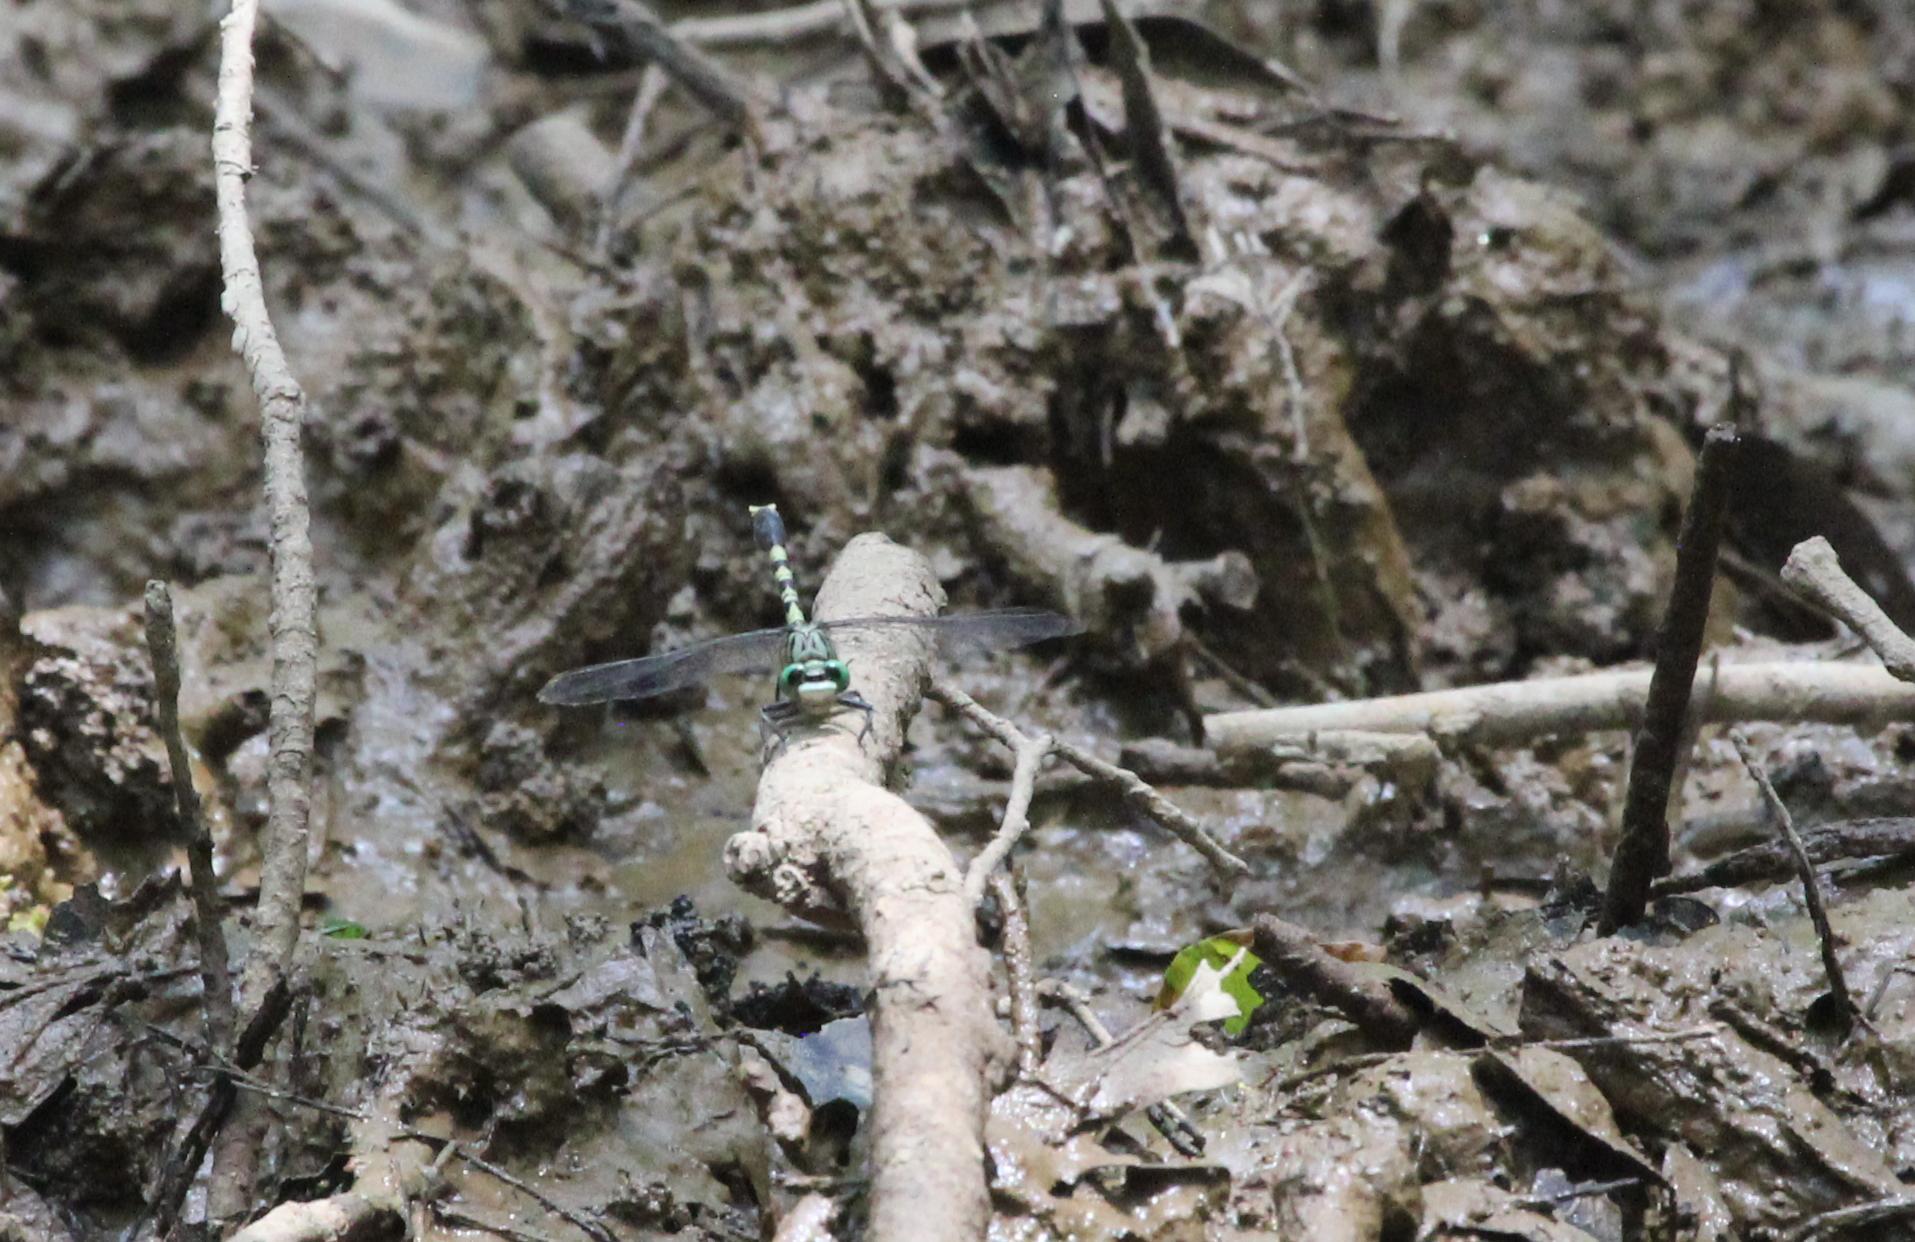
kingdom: Animalia
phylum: Arthropoda
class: Insecta
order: Odonata
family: Gomphidae
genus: Arigomphus
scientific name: Arigomphus maxwelli
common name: Bayou clubtail
